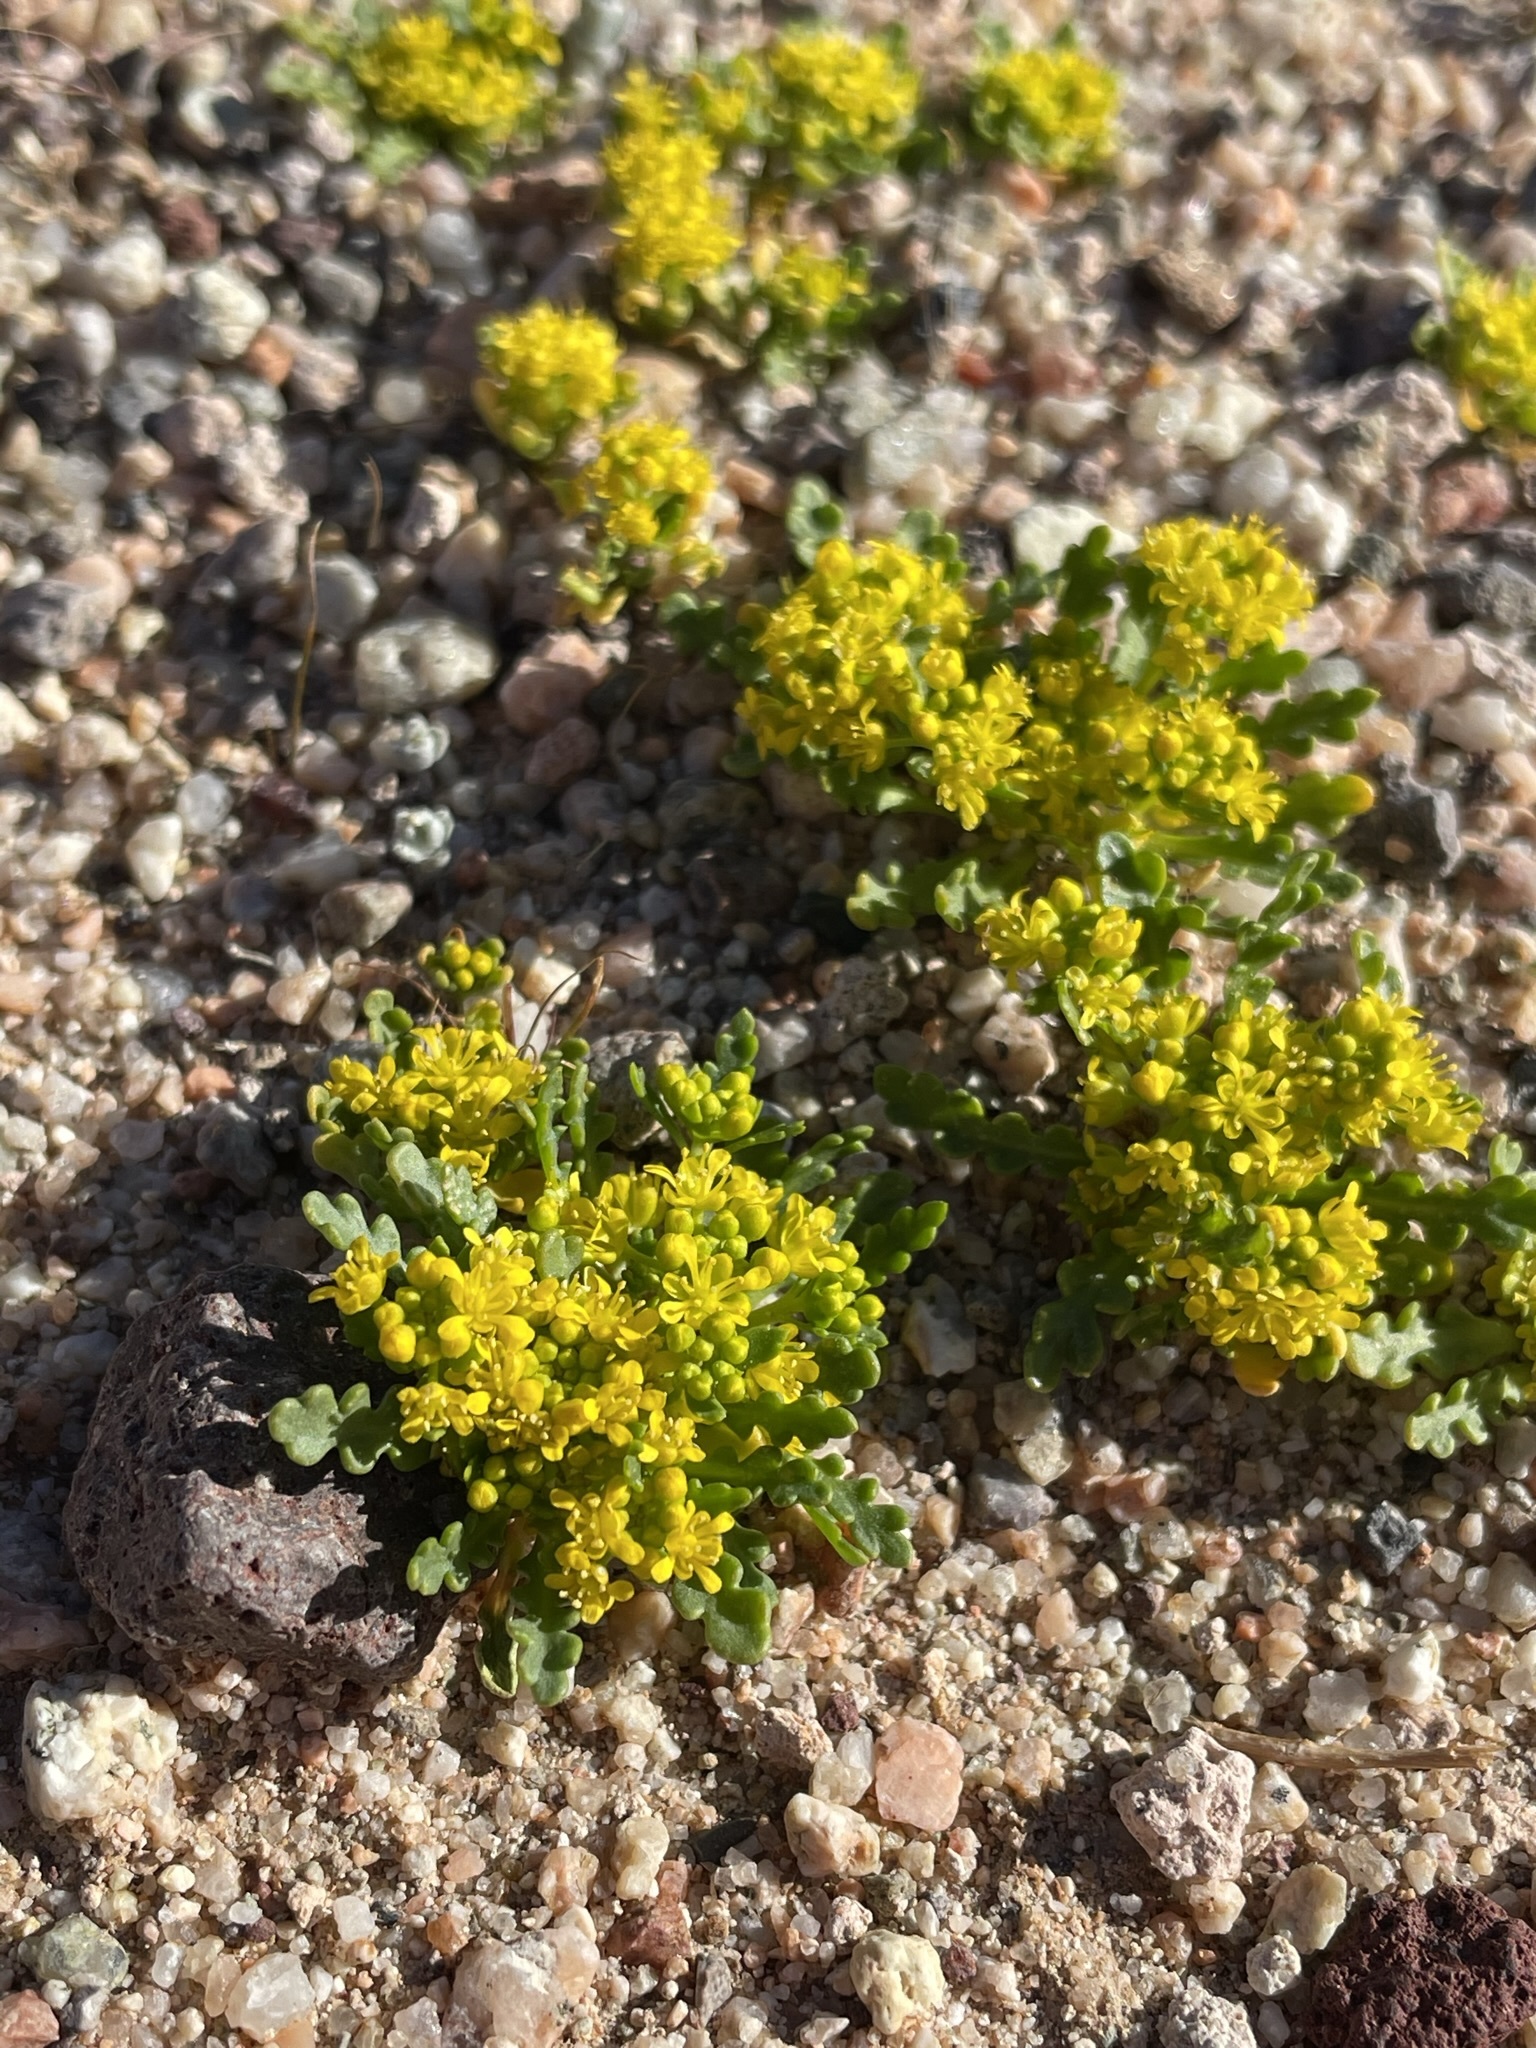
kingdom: Plantae
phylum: Tracheophyta
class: Magnoliopsida
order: Brassicales
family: Brassicaceae
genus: Lepidium
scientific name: Lepidium flavum
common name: Yellow pepperwort
